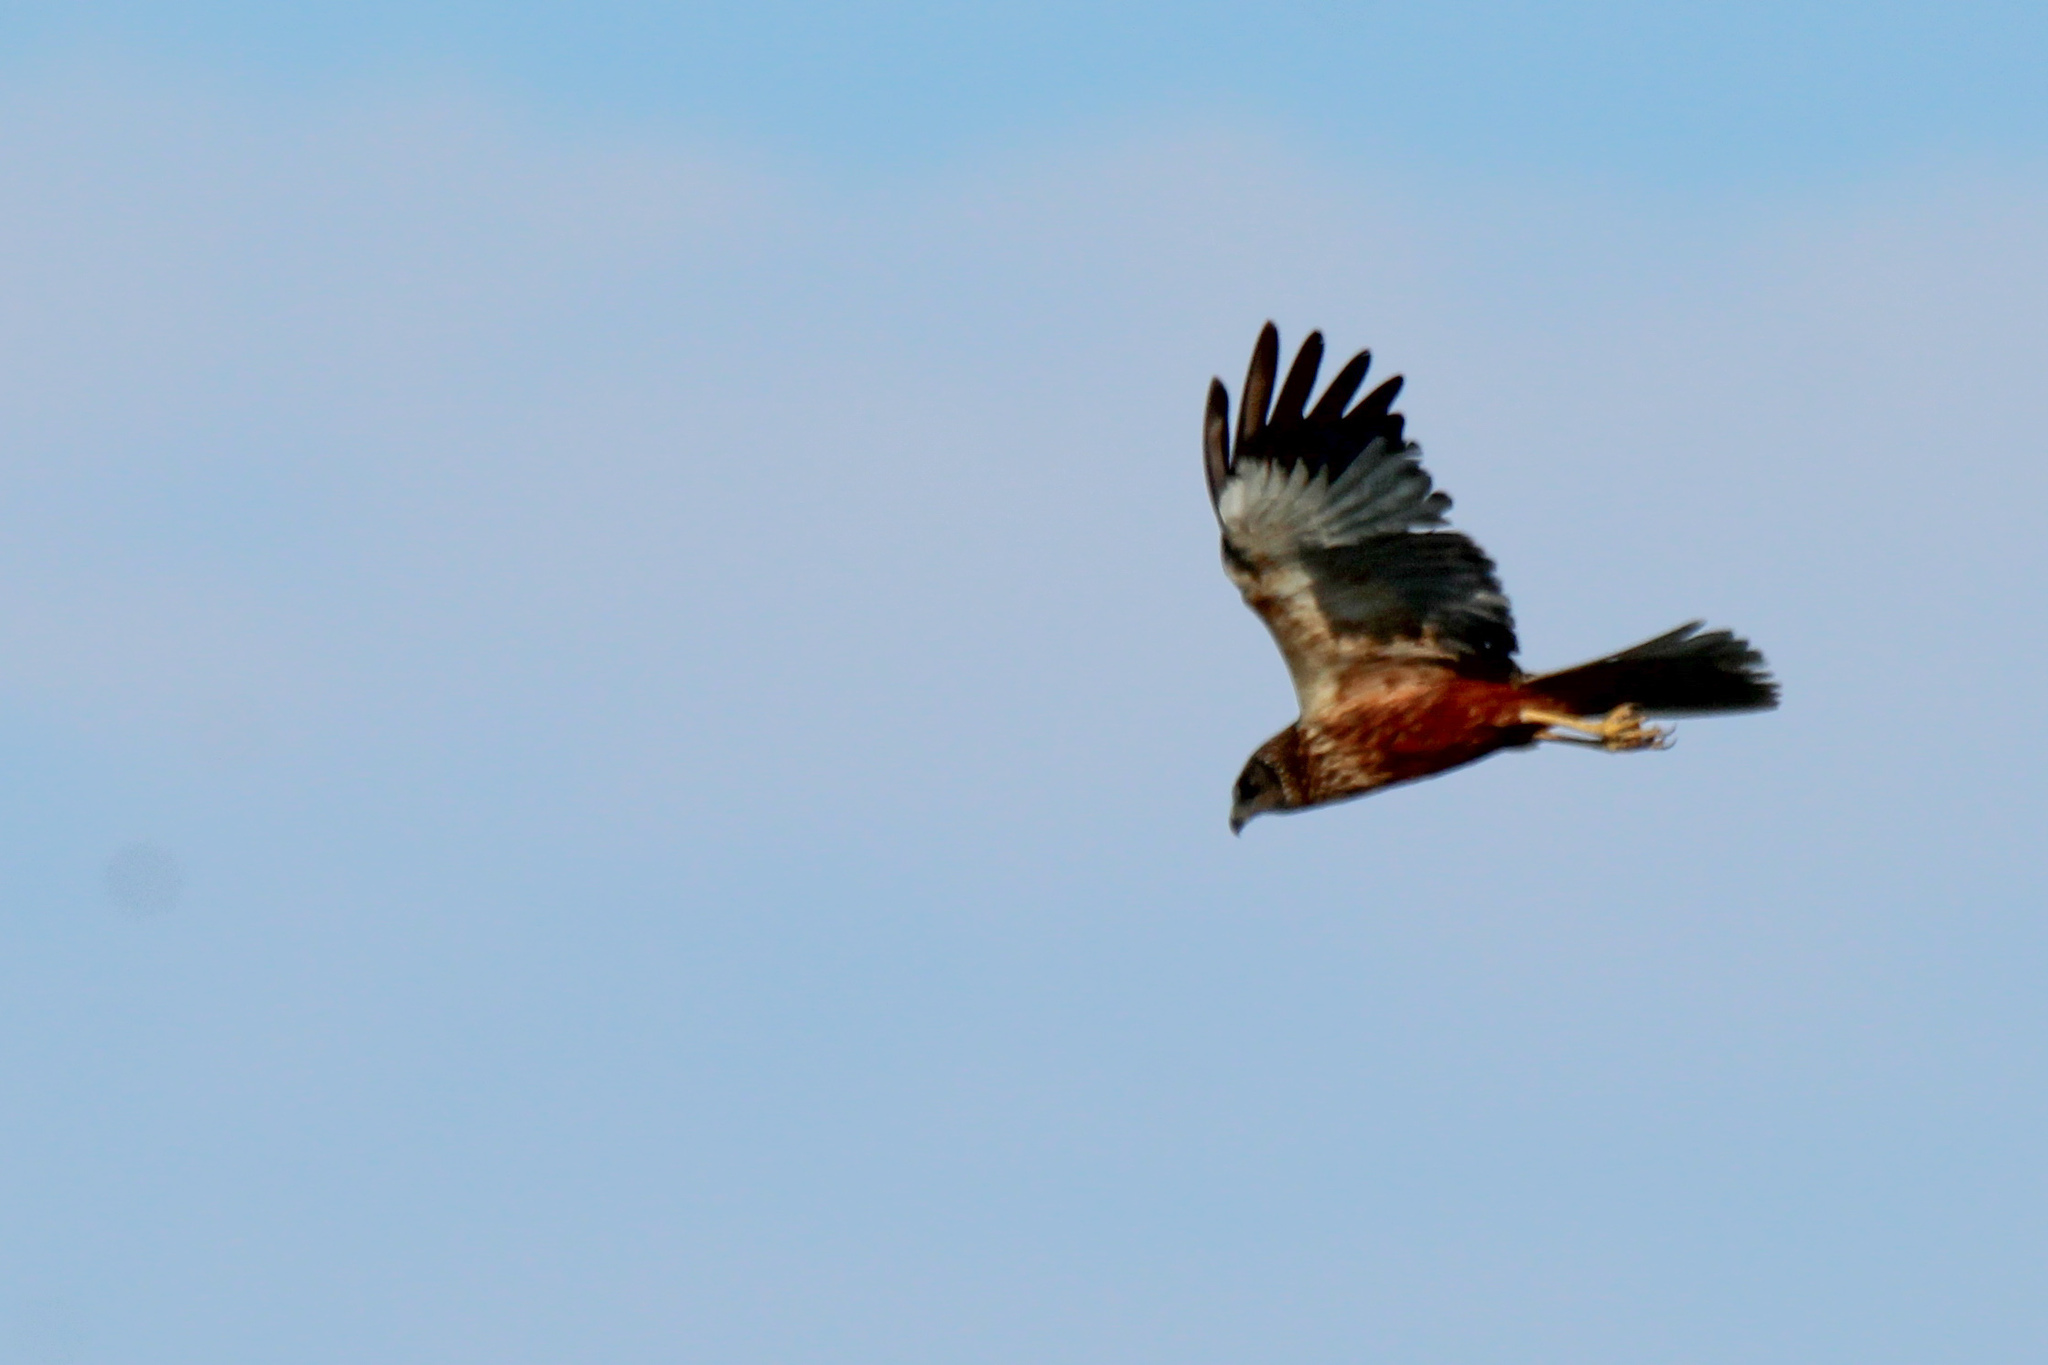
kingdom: Animalia
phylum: Chordata
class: Aves
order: Accipitriformes
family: Accipitridae
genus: Circus
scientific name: Circus aeruginosus
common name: Western marsh harrier
